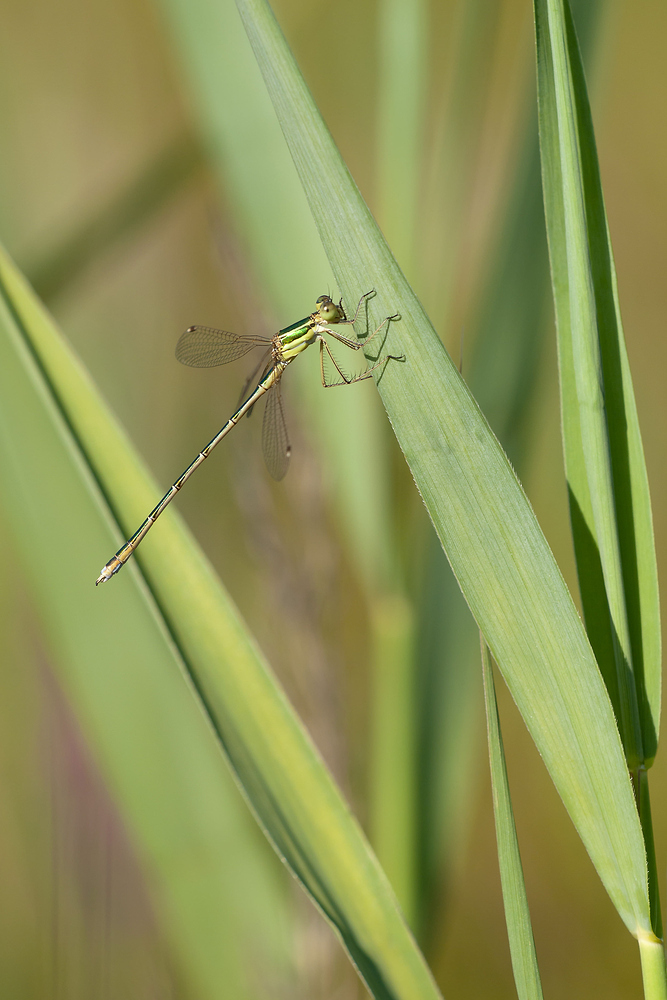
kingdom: Animalia
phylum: Arthropoda
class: Insecta
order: Odonata
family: Lestidae
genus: Lestes
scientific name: Lestes barbarus
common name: Migrant spreadwing
